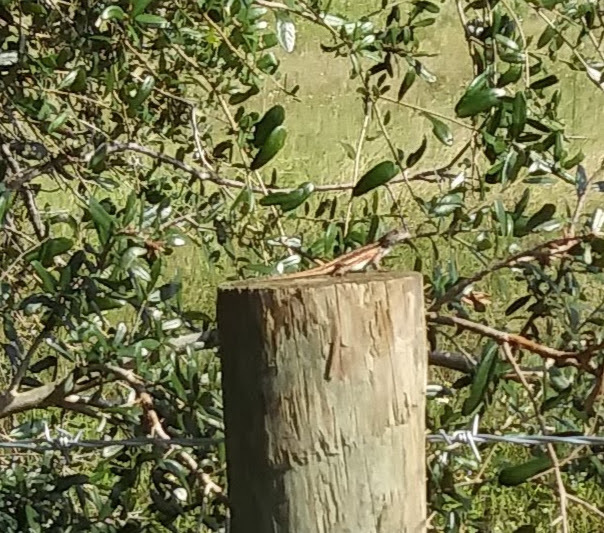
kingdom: Animalia
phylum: Chordata
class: Squamata
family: Phrynosomatidae
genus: Sceloporus
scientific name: Sceloporus woodi
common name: Florida scrub lizard
